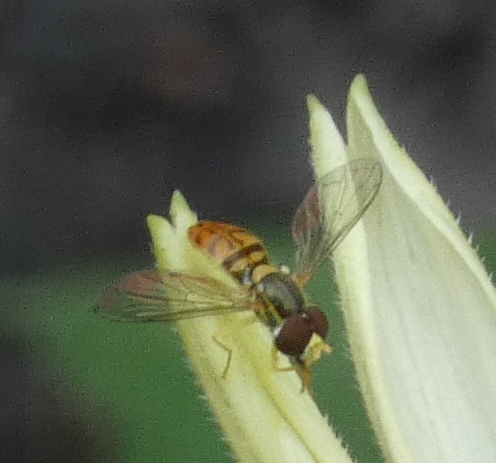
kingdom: Animalia
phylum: Arthropoda
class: Insecta
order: Diptera
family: Syrphidae
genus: Toxomerus
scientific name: Toxomerus marginatus
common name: Syrphid fly
